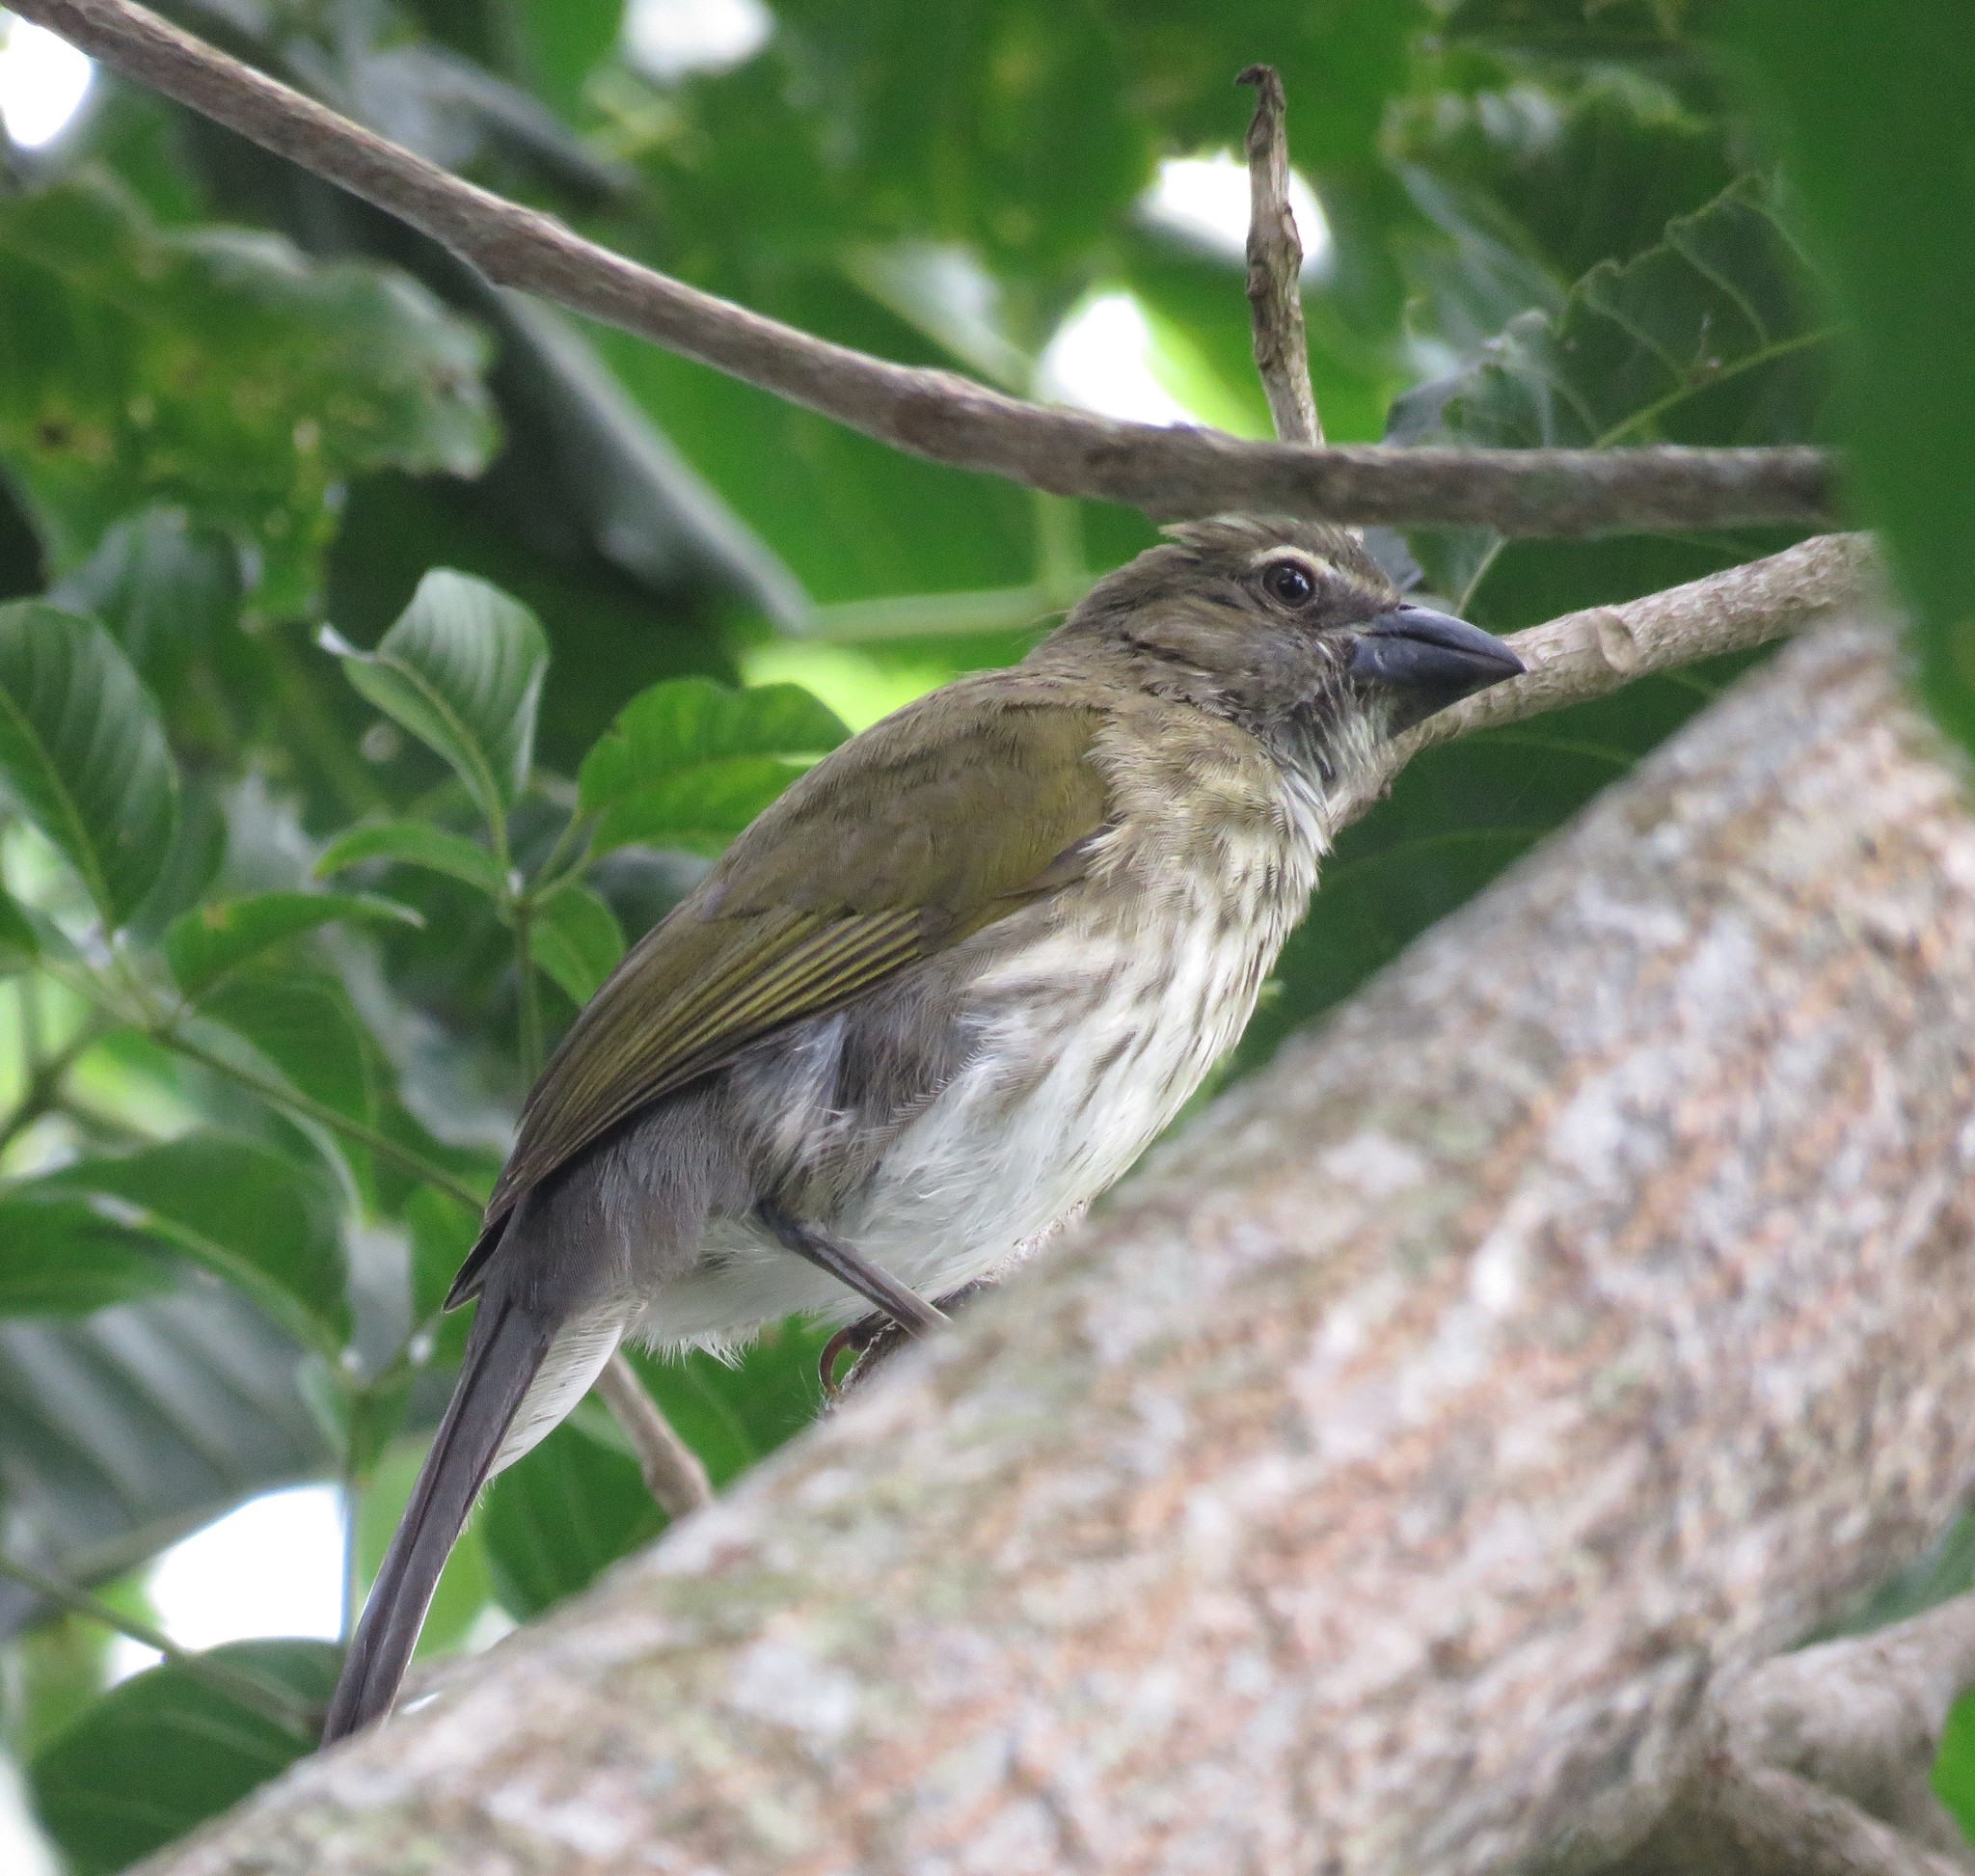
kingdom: Animalia
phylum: Chordata
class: Aves
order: Passeriformes
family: Thraupidae
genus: Saltator
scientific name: Saltator striatipectus
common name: Streaked saltator
